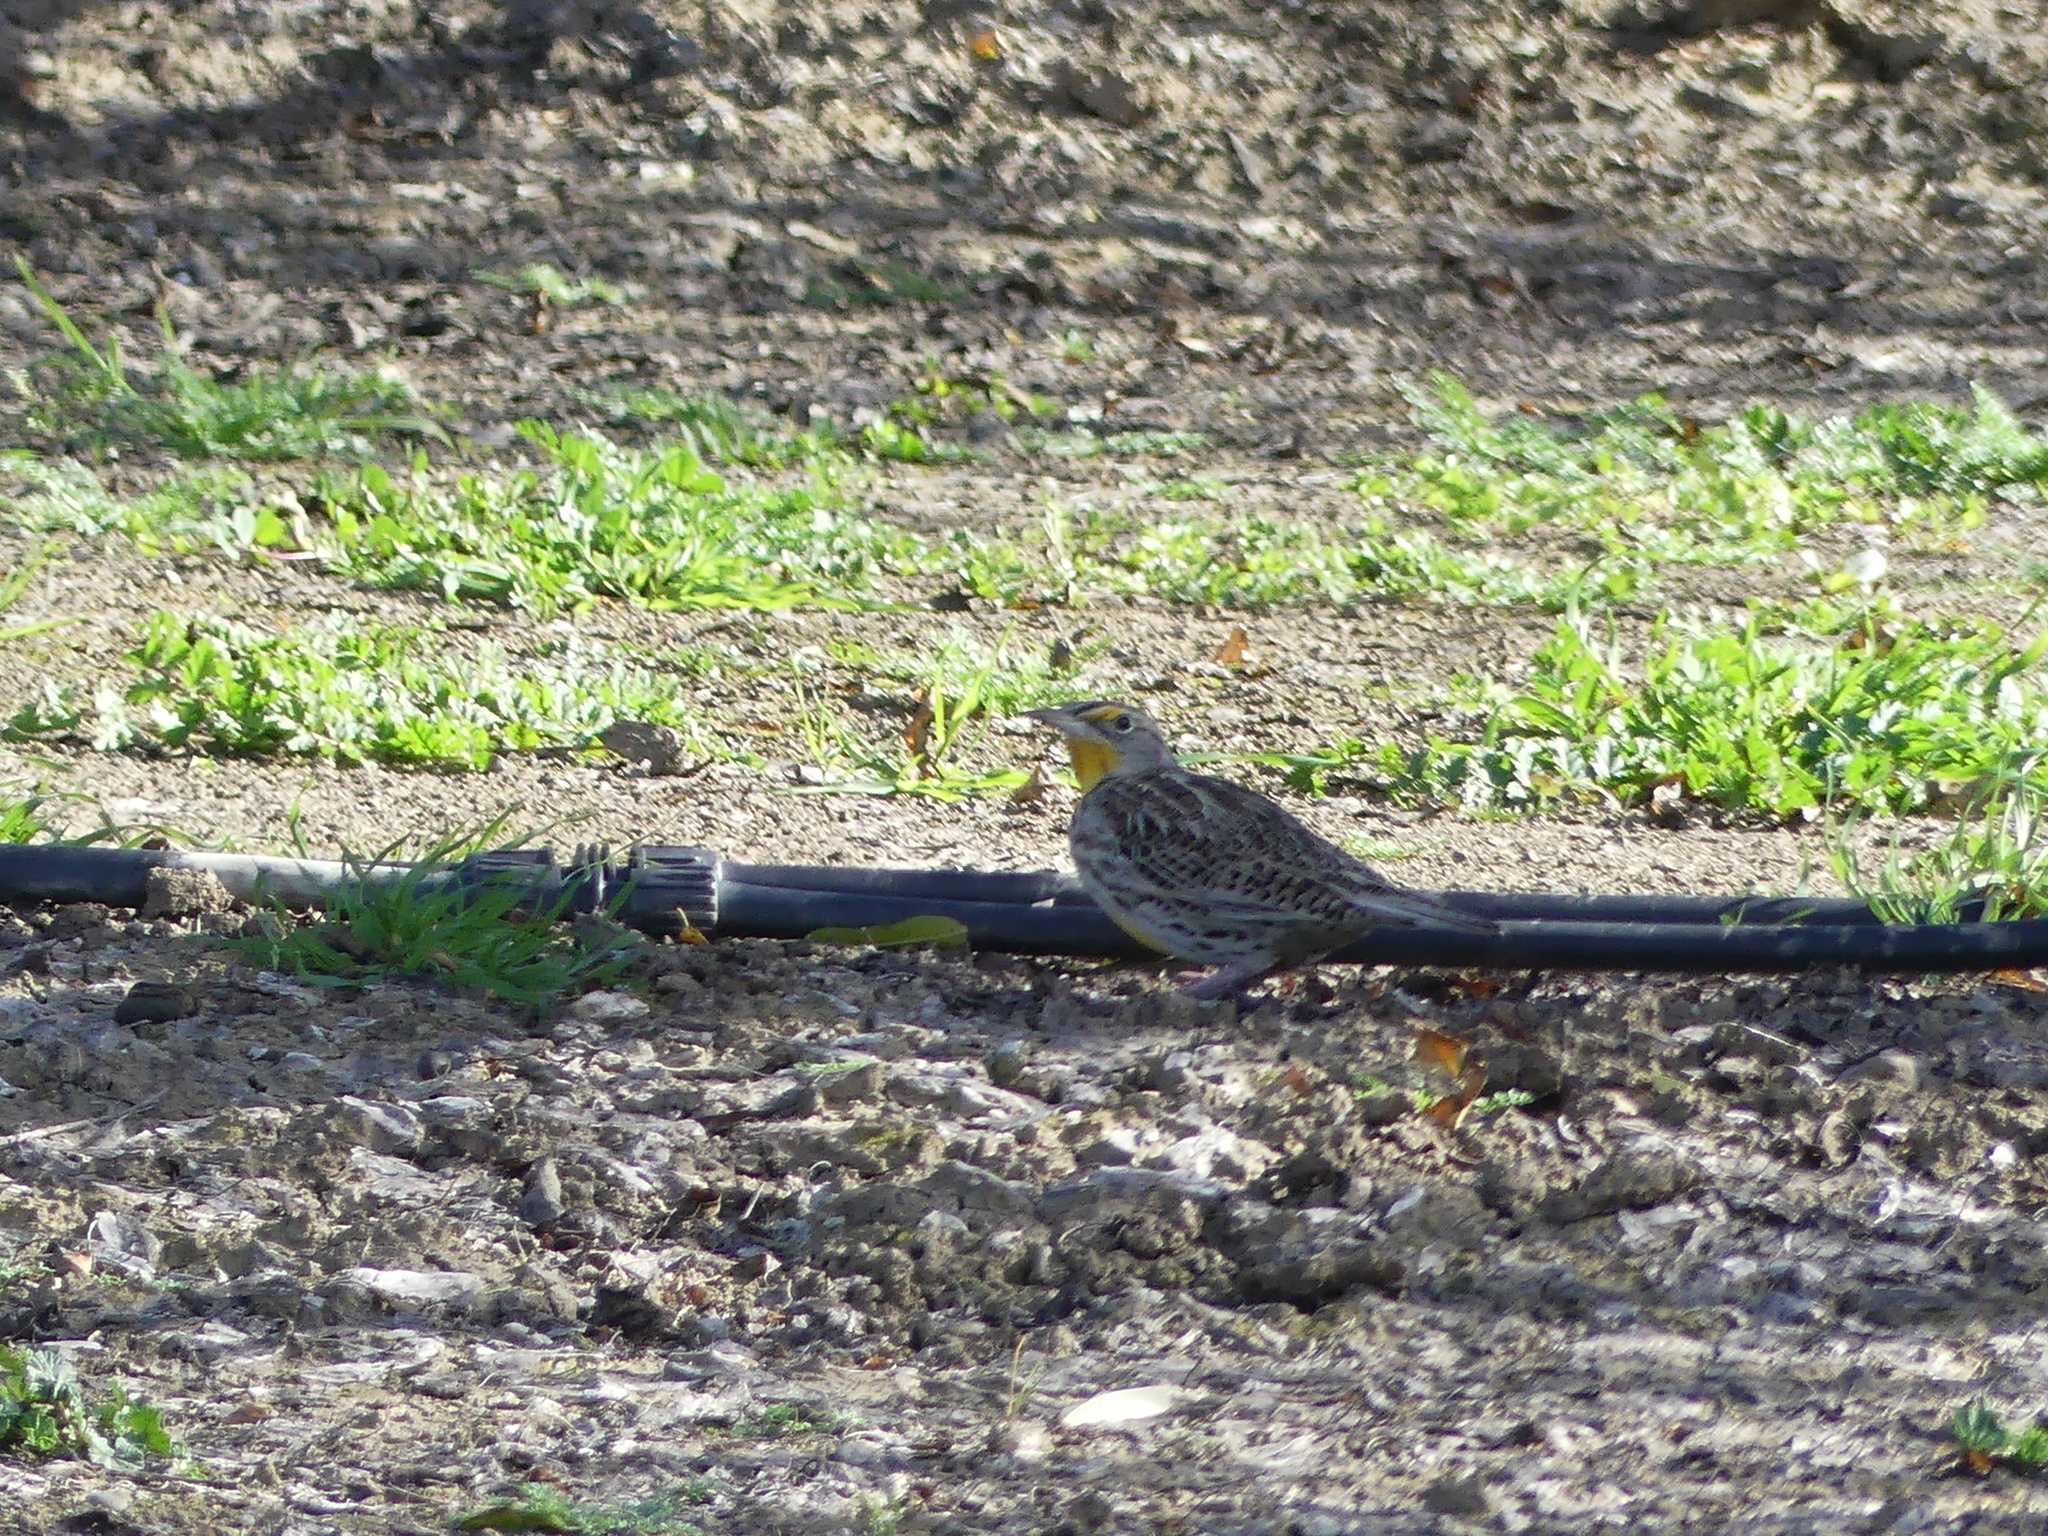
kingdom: Animalia
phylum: Chordata
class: Aves
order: Passeriformes
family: Icteridae
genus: Sturnella
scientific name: Sturnella neglecta
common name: Western meadowlark
